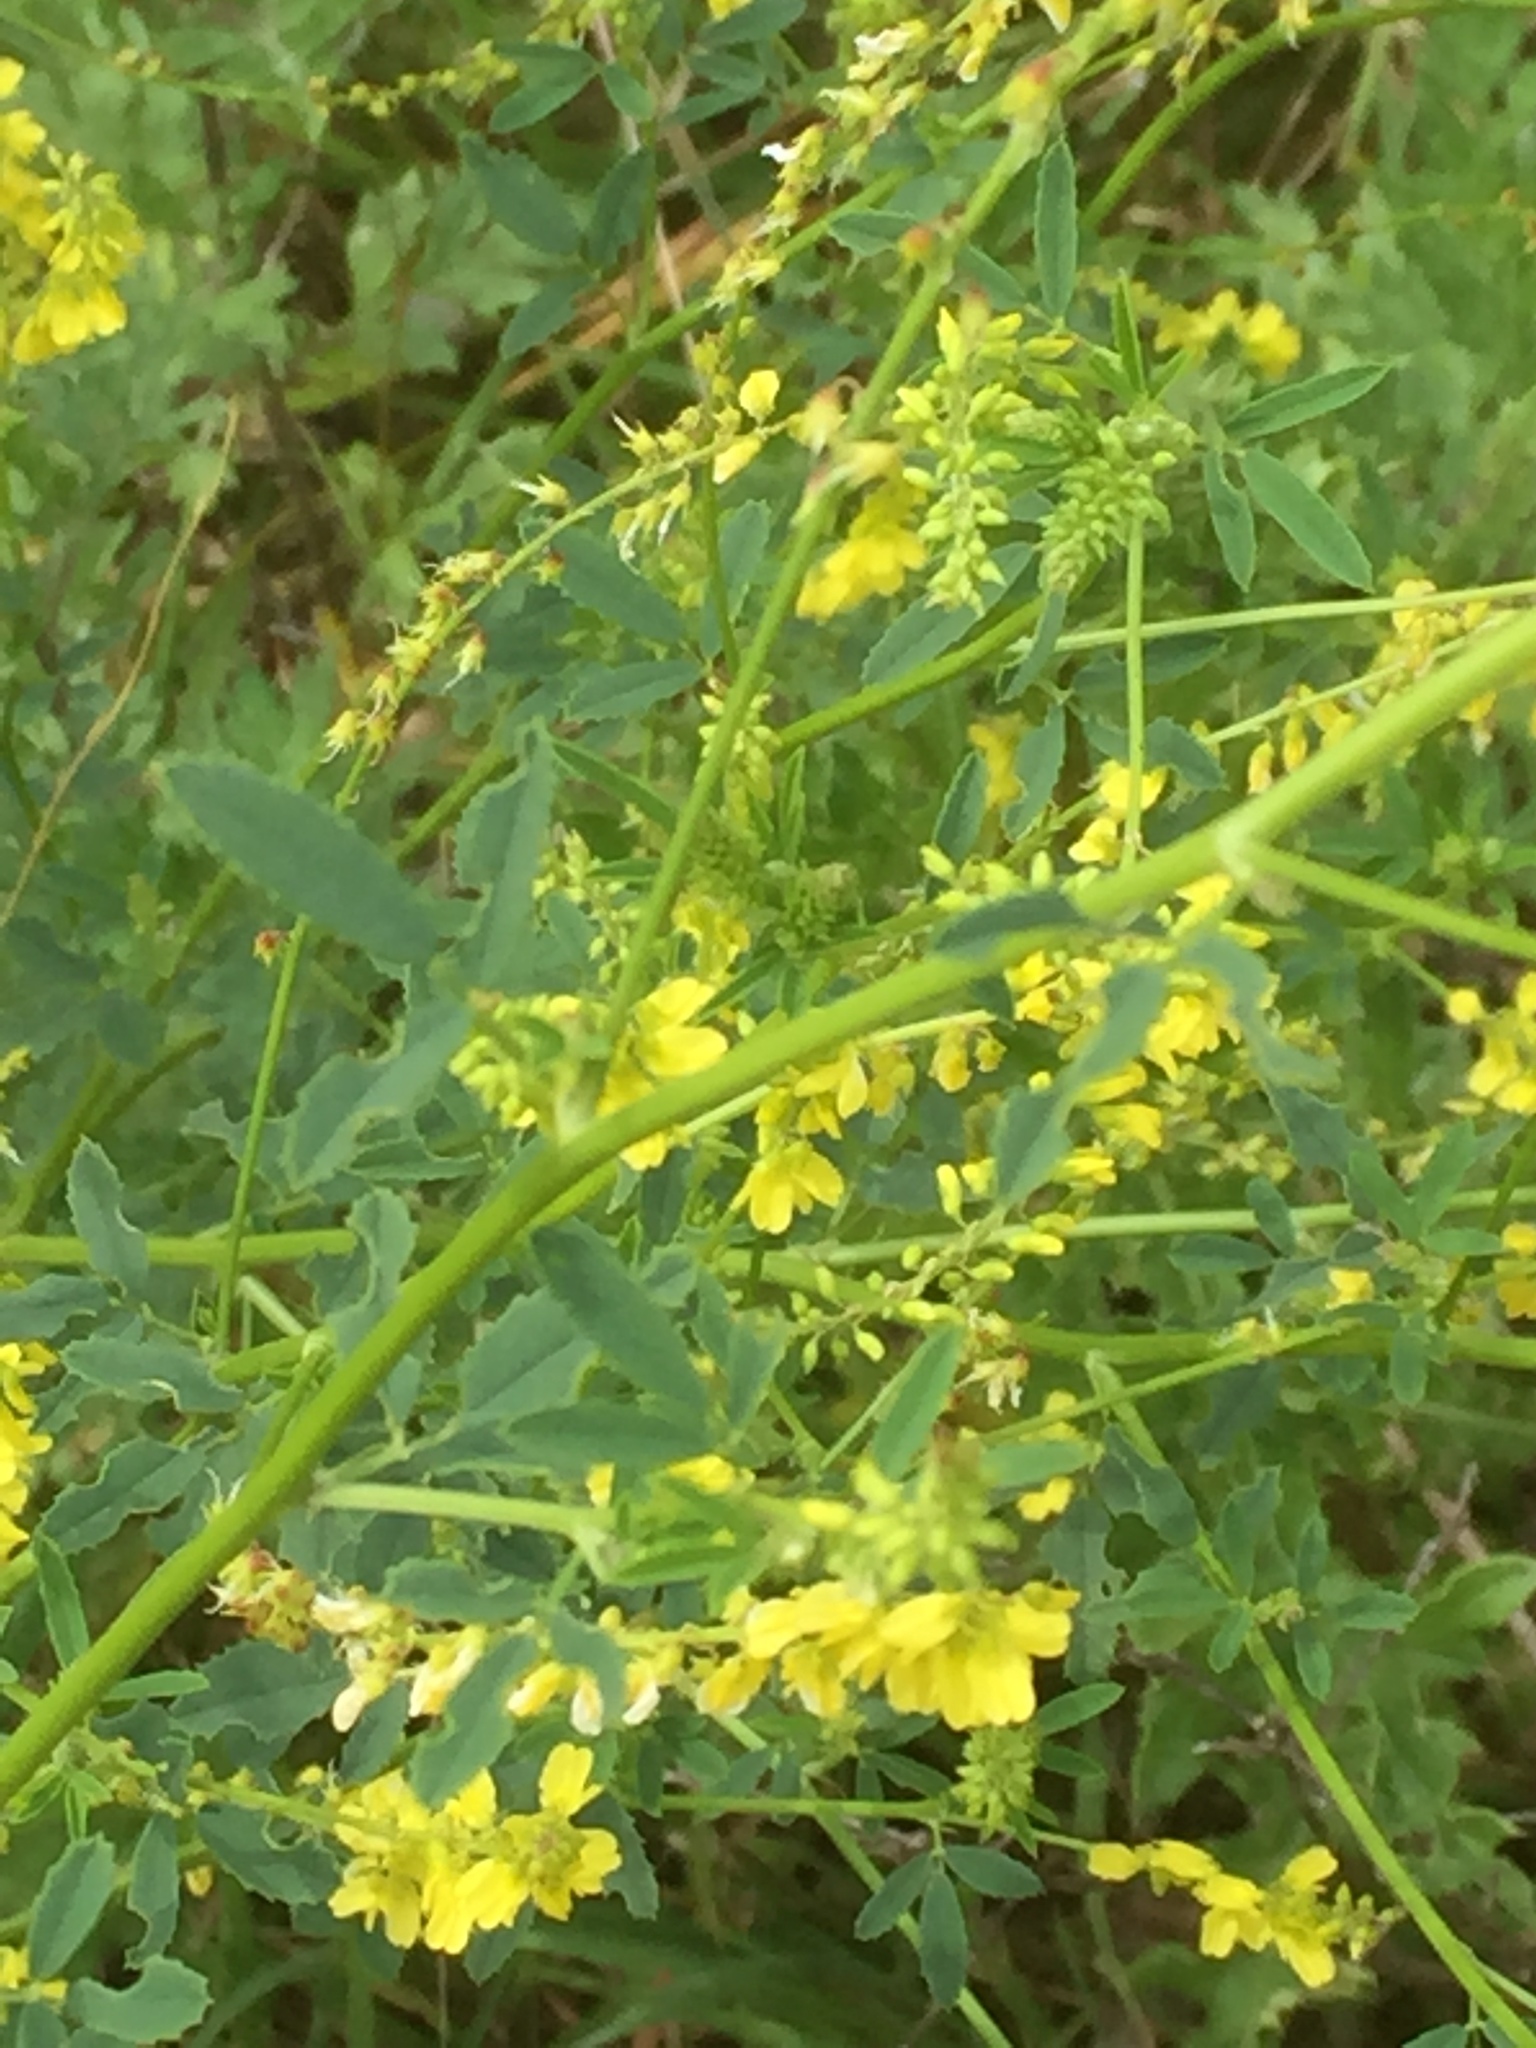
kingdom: Plantae
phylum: Tracheophyta
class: Magnoliopsida
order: Fabales
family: Fabaceae
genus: Melilotus
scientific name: Melilotus officinalis
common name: Sweetclover
